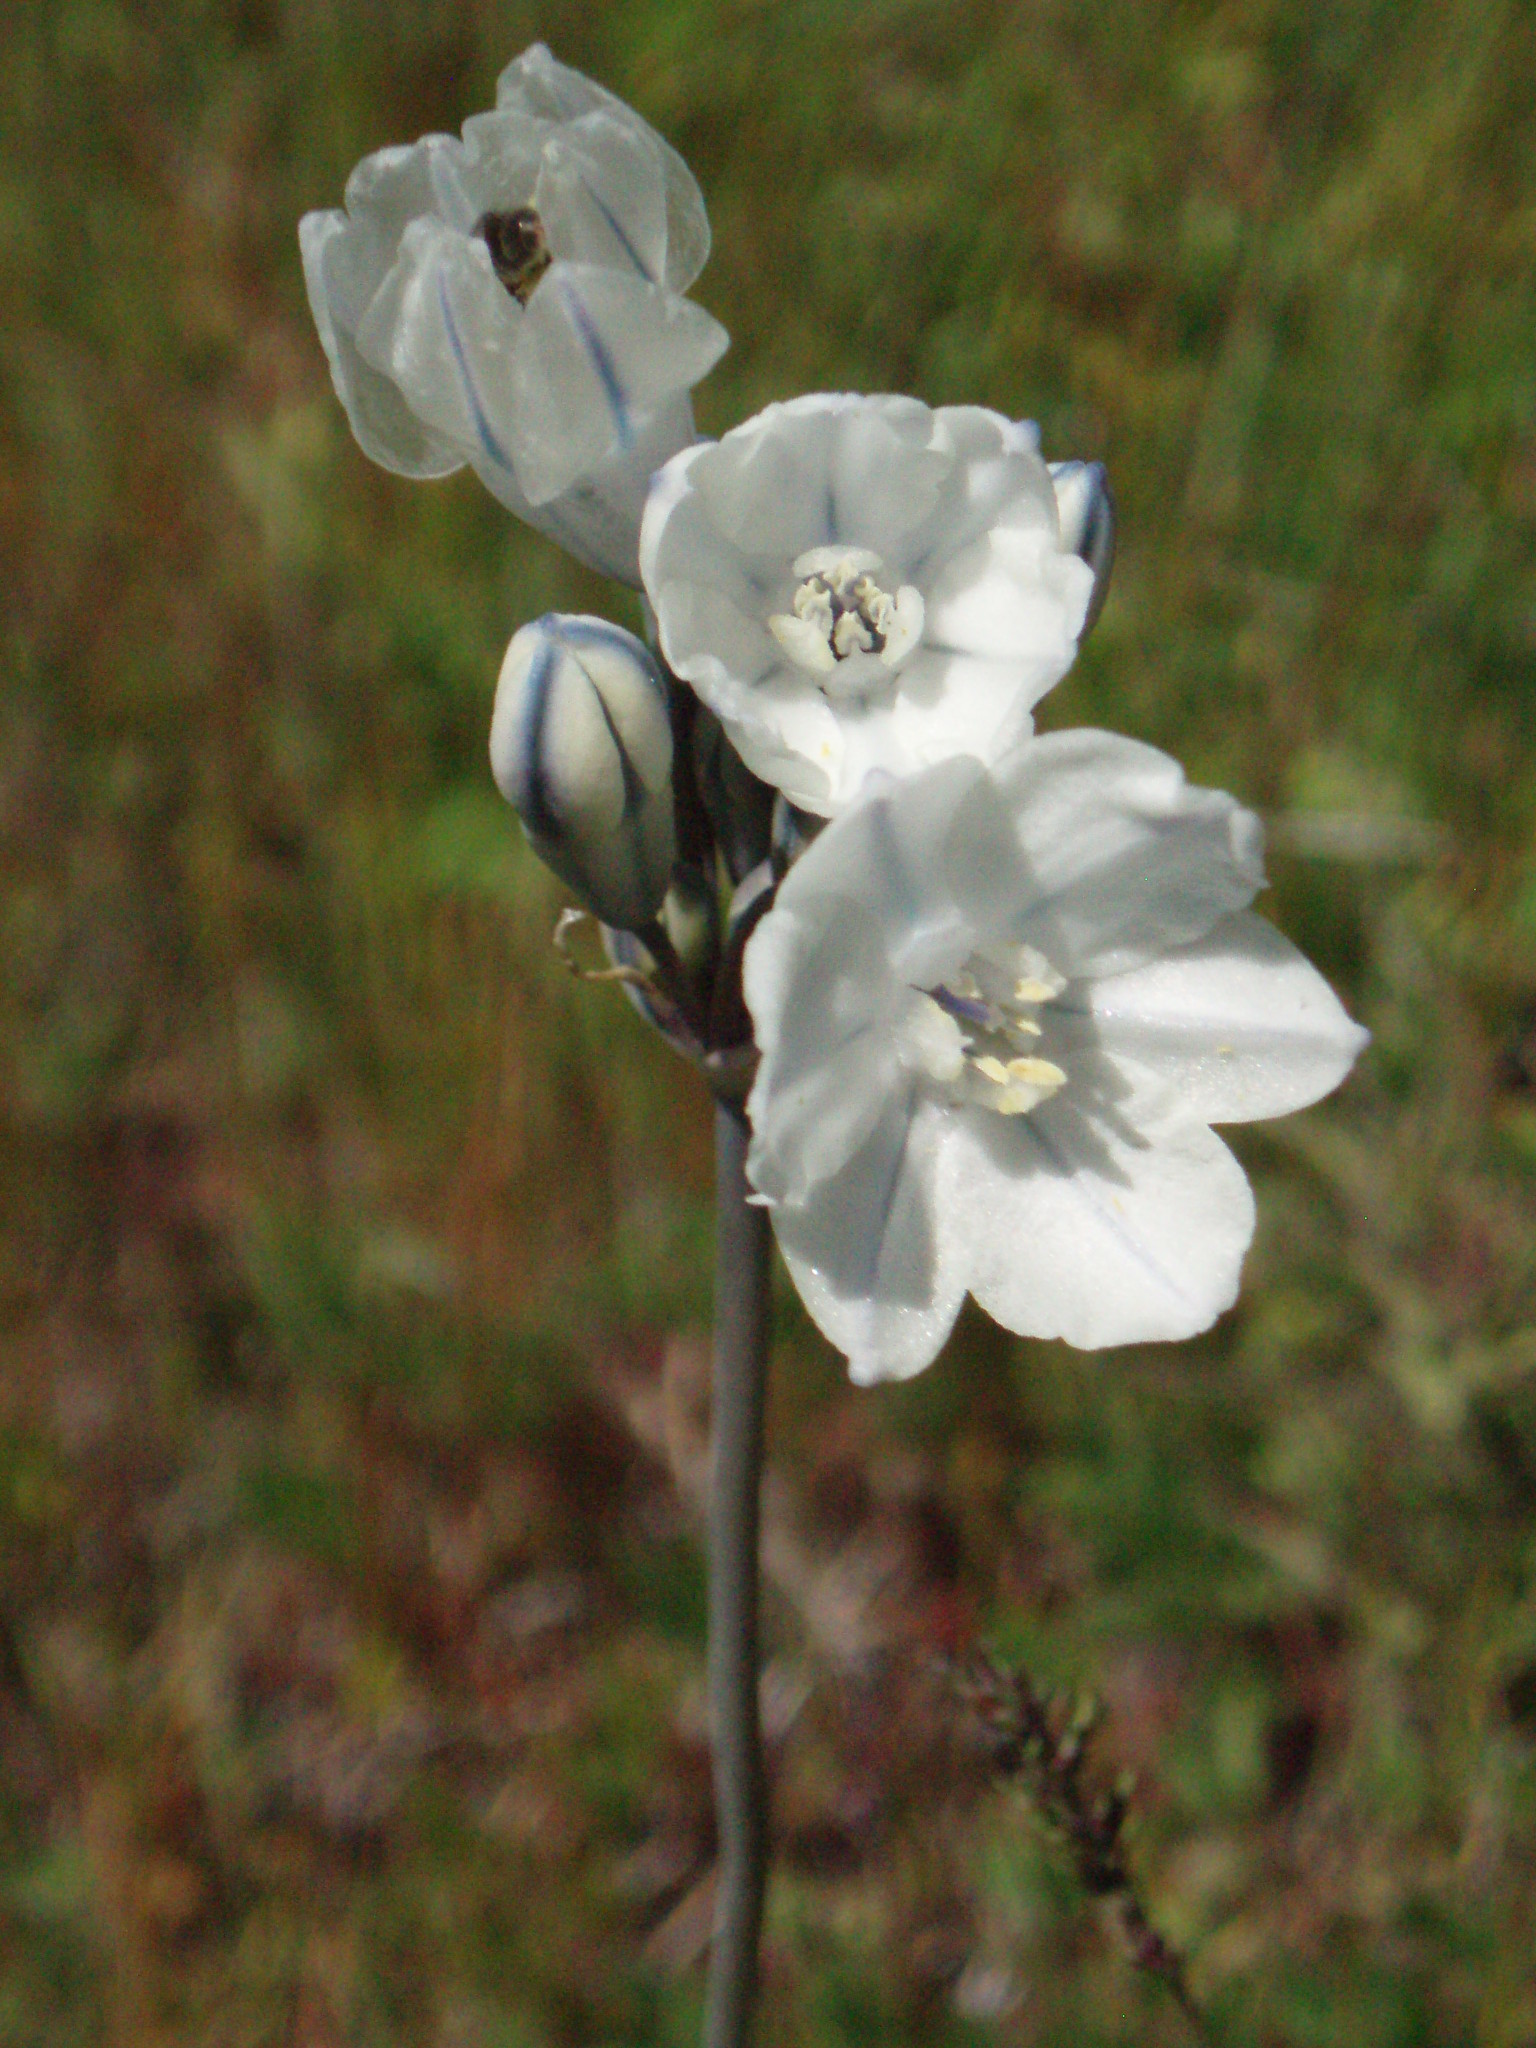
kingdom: Plantae
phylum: Tracheophyta
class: Liliopsida
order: Asparagales
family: Asparagaceae
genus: Triteleia
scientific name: Triteleia grandiflora
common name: Wild hyacinth
